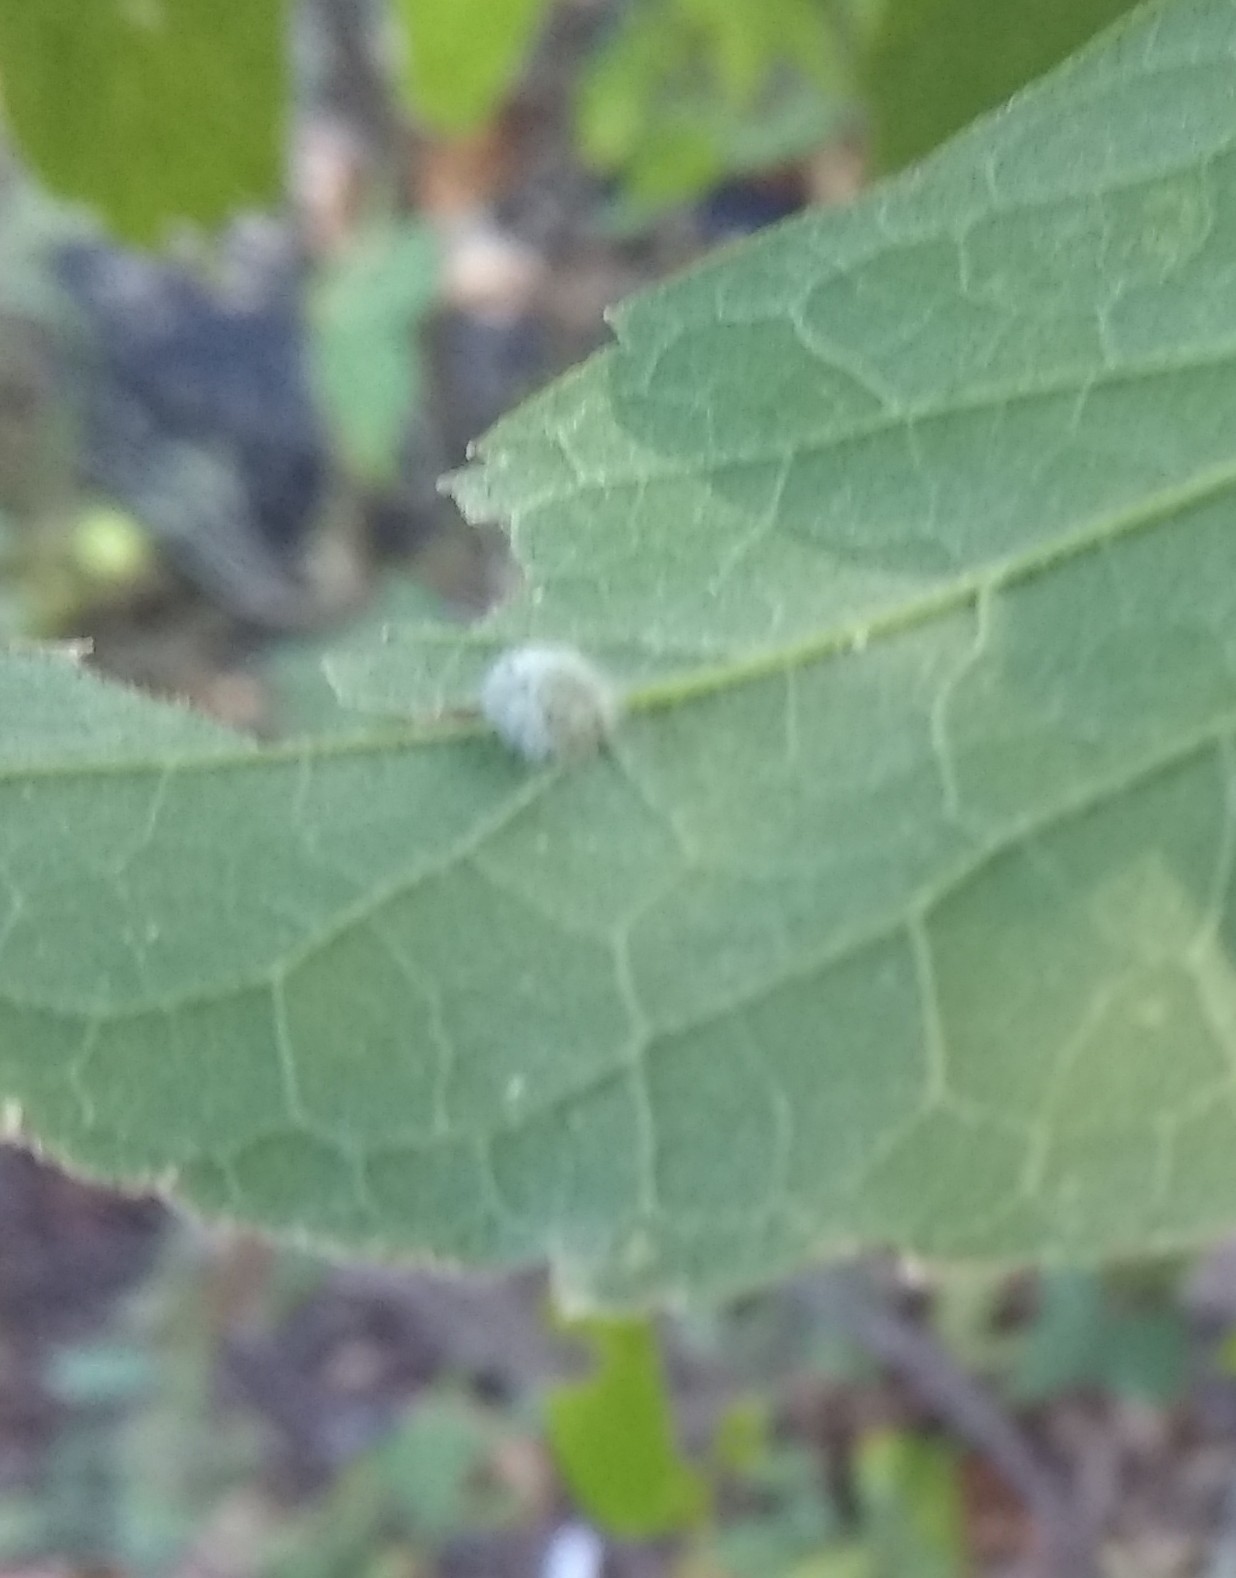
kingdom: Animalia
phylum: Arthropoda
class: Insecta
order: Diptera
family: Cecidomyiidae
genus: Celticecis
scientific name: Celticecis pubescens
